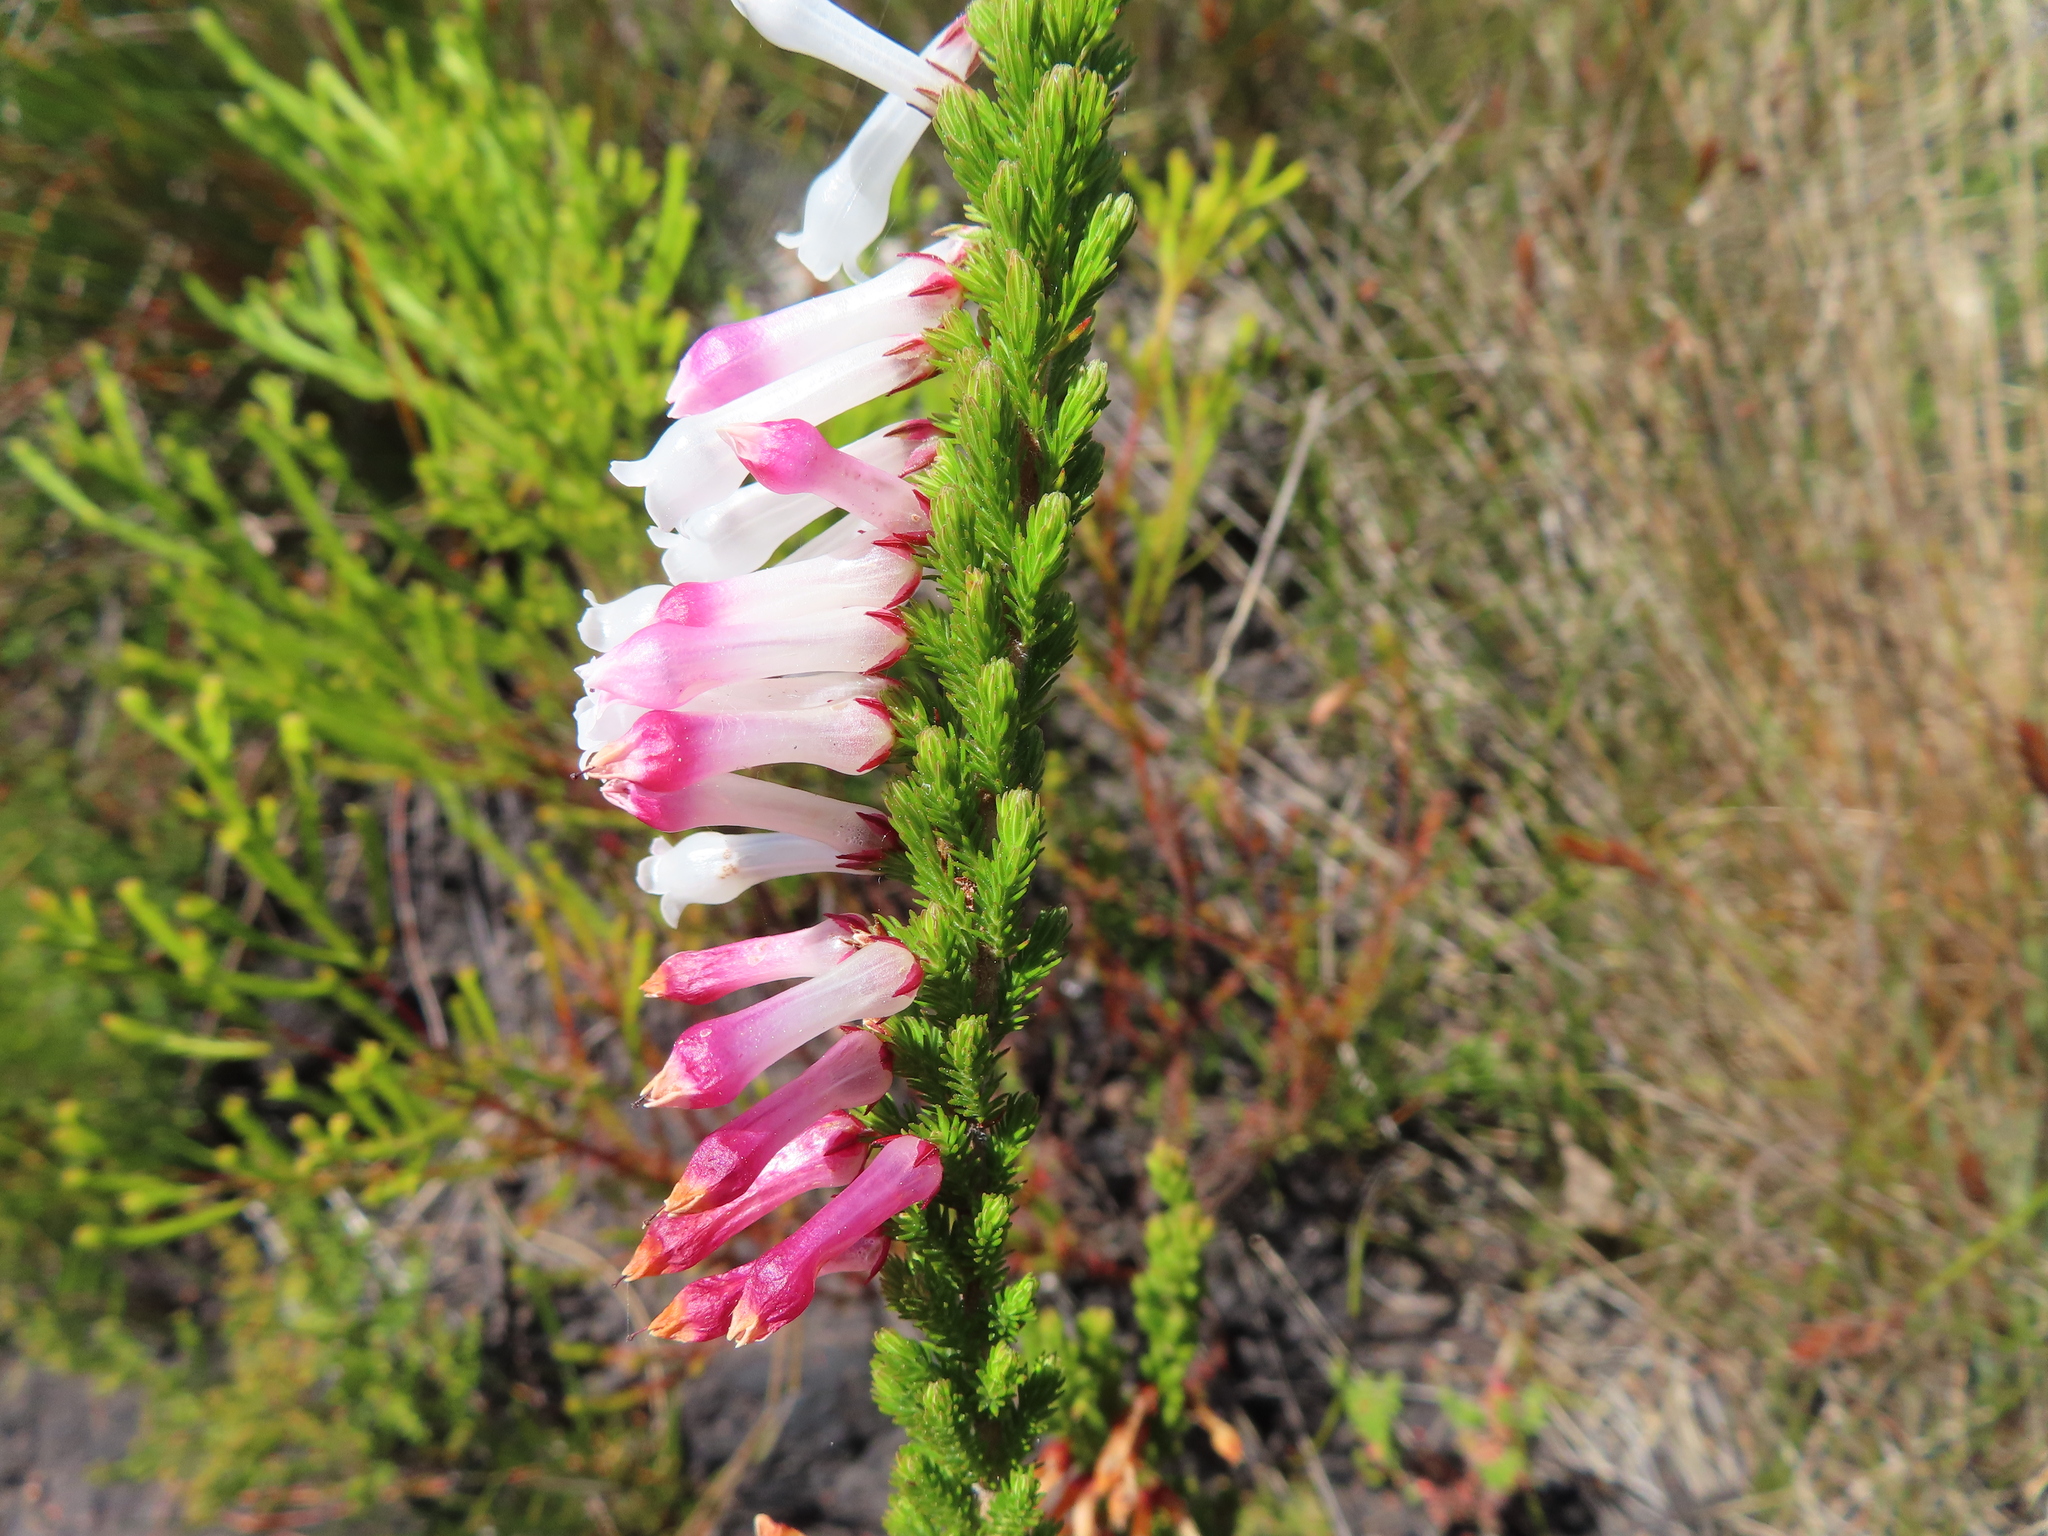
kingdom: Plantae
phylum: Tracheophyta
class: Magnoliopsida
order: Ericales
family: Ericaceae
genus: Erica
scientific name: Erica colorans
